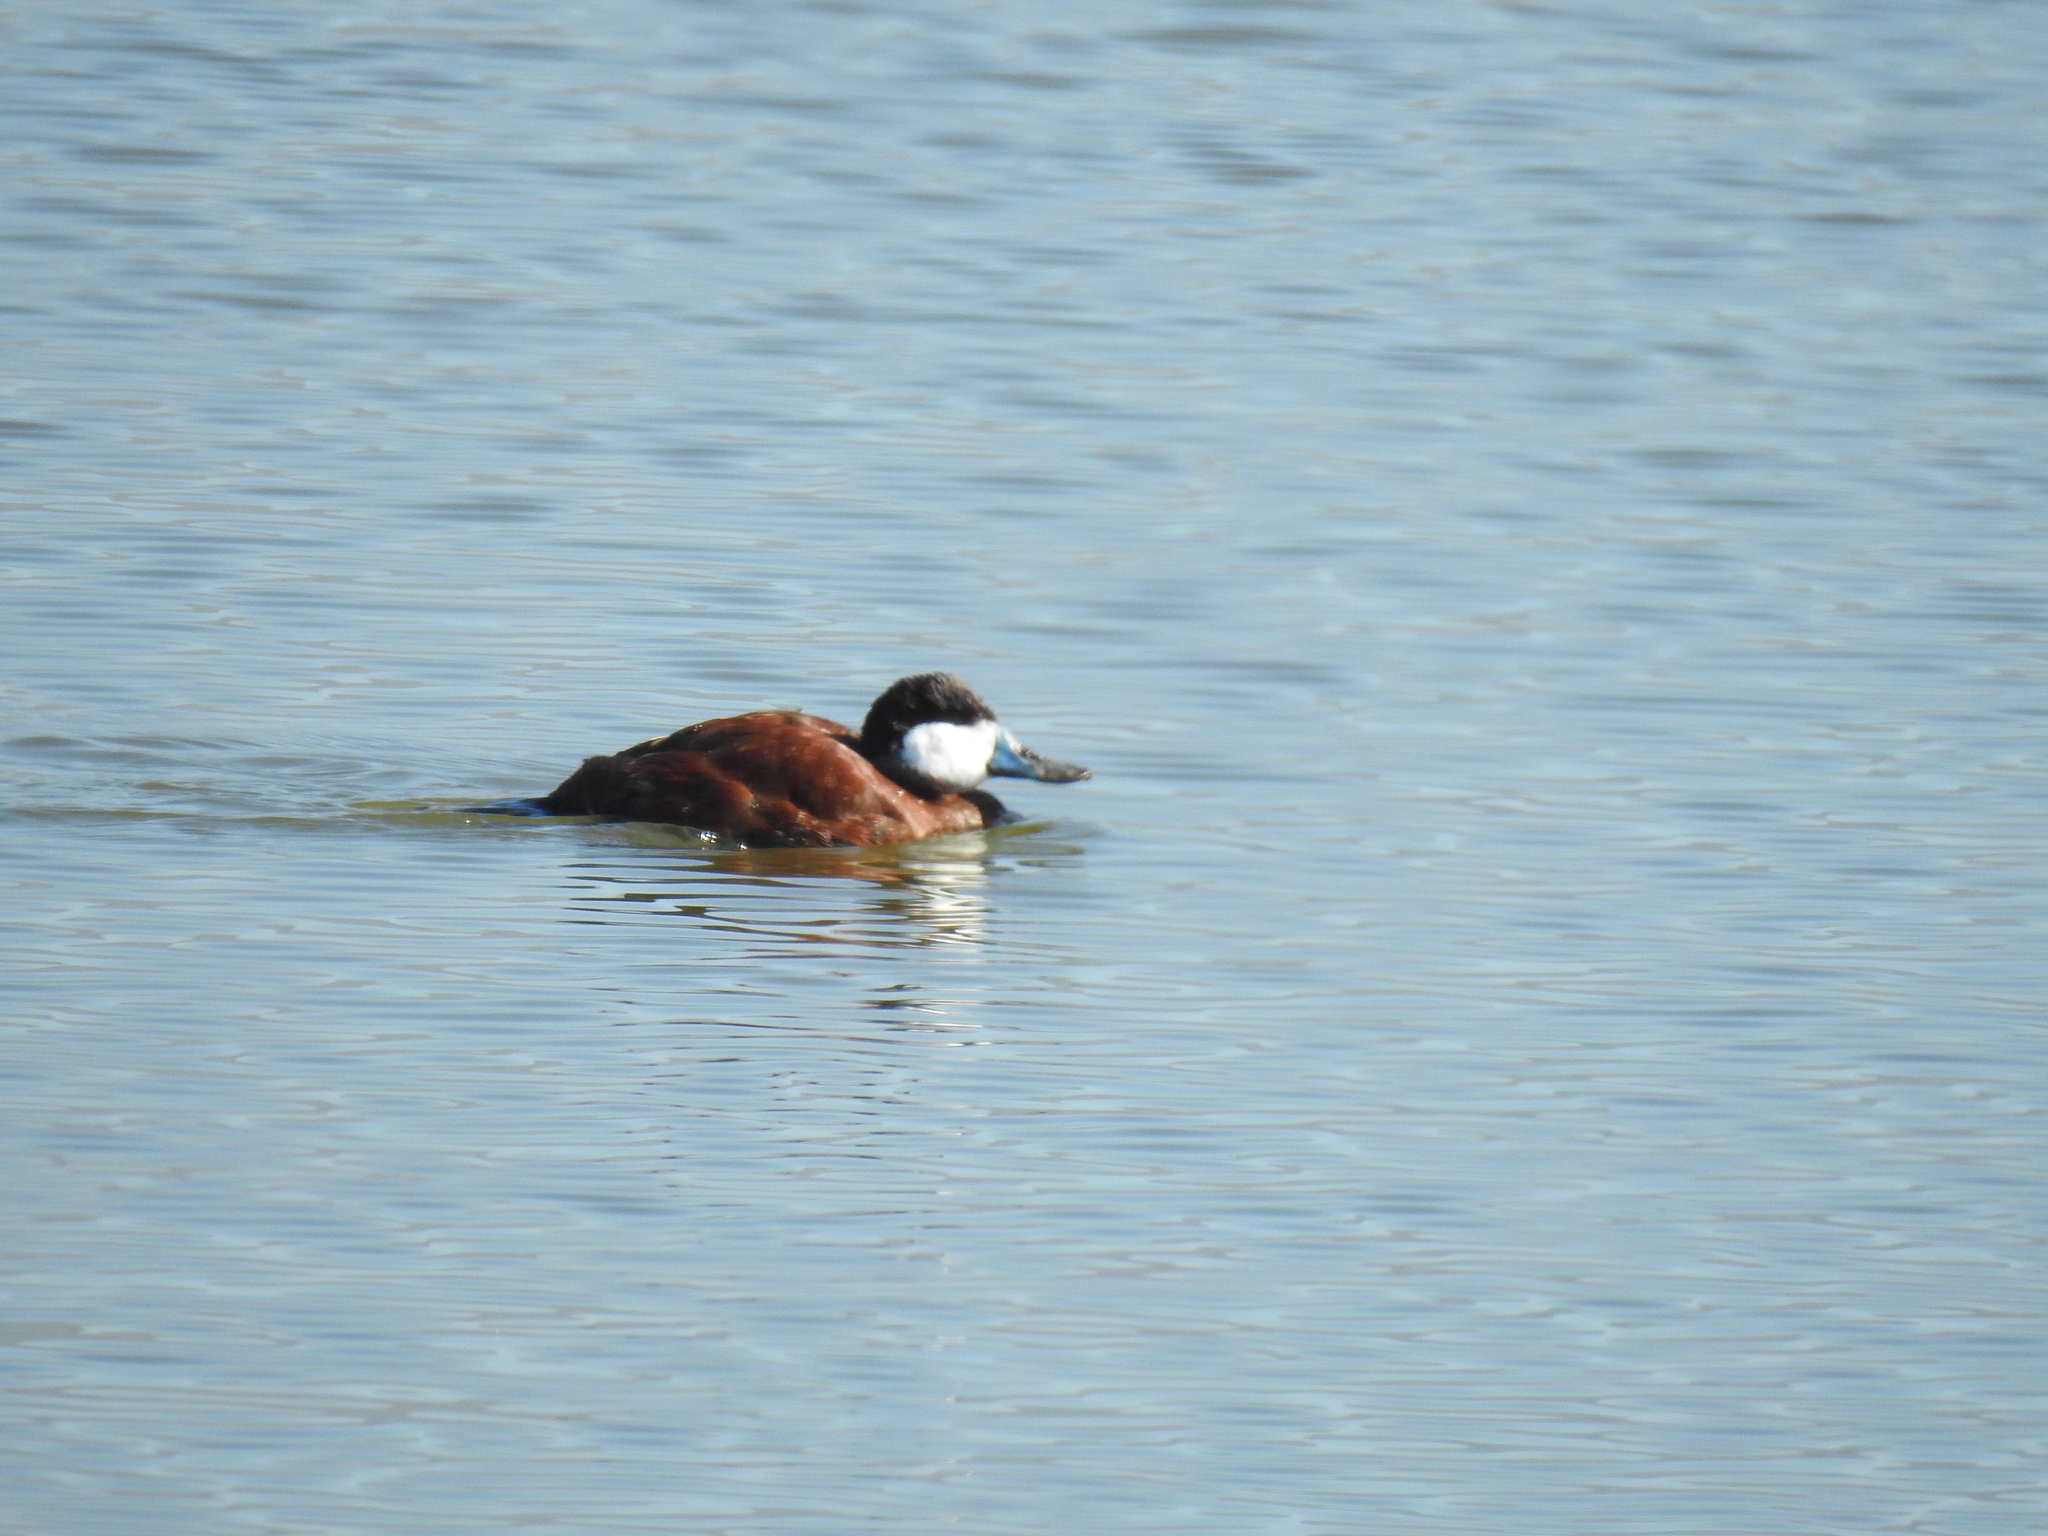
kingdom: Animalia
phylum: Chordata
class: Aves
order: Anseriformes
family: Anatidae
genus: Oxyura
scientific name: Oxyura jamaicensis
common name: Ruddy duck
